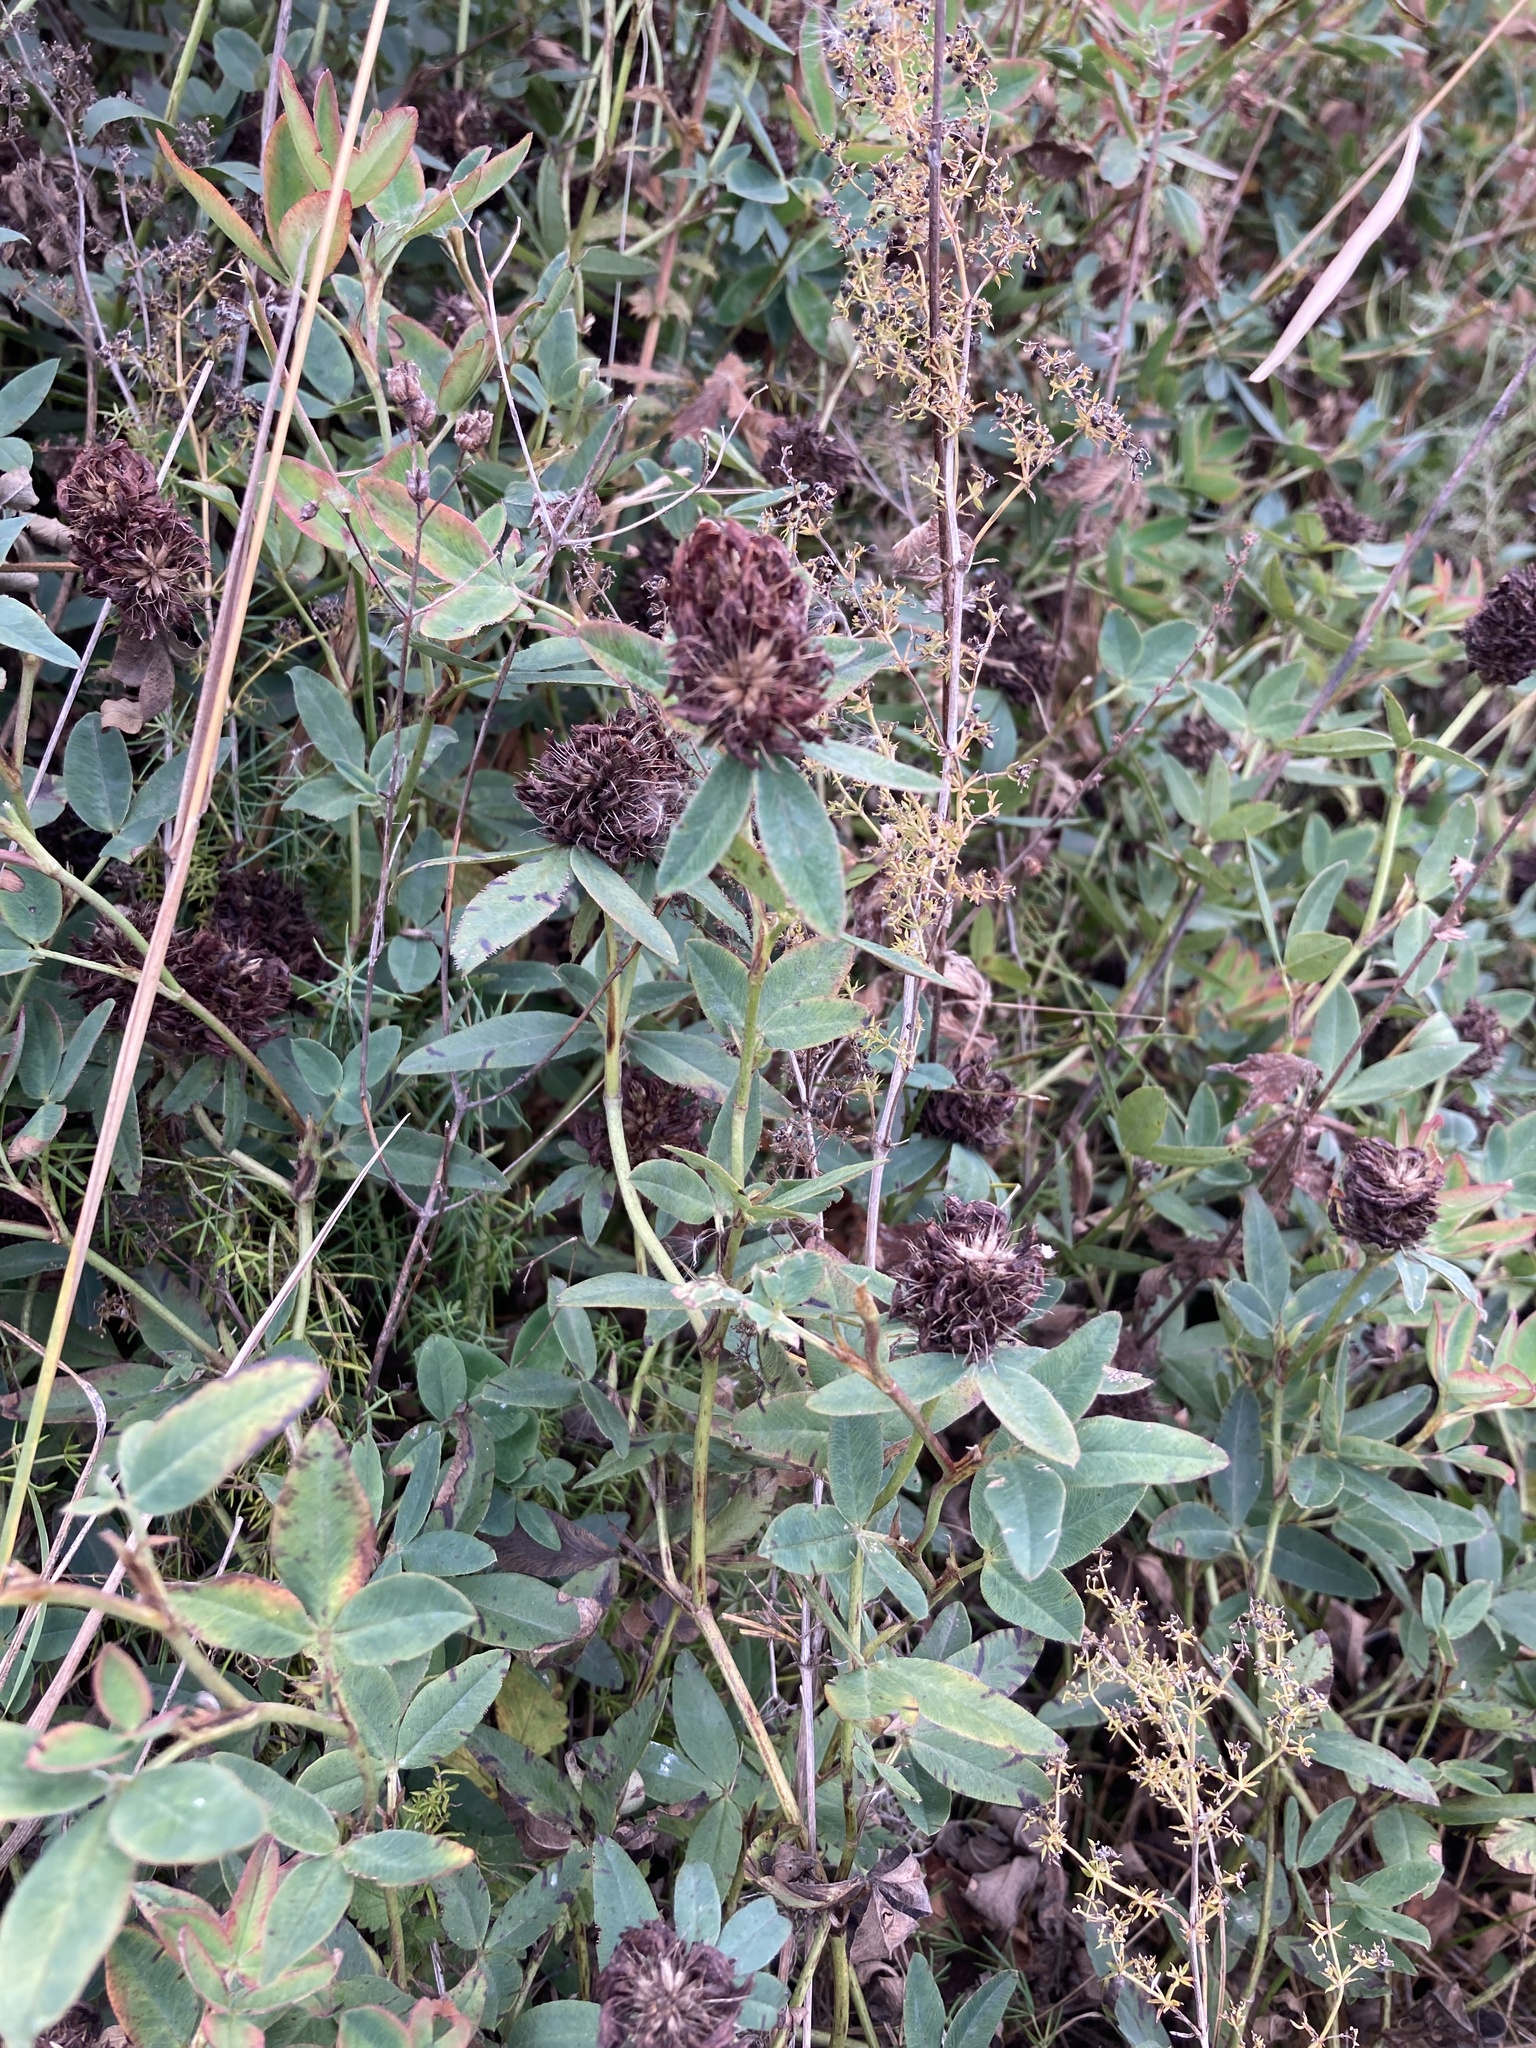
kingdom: Plantae
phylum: Tracheophyta
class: Magnoliopsida
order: Fabales
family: Fabaceae
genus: Trifolium
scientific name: Trifolium medium
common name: Zigzag clover
